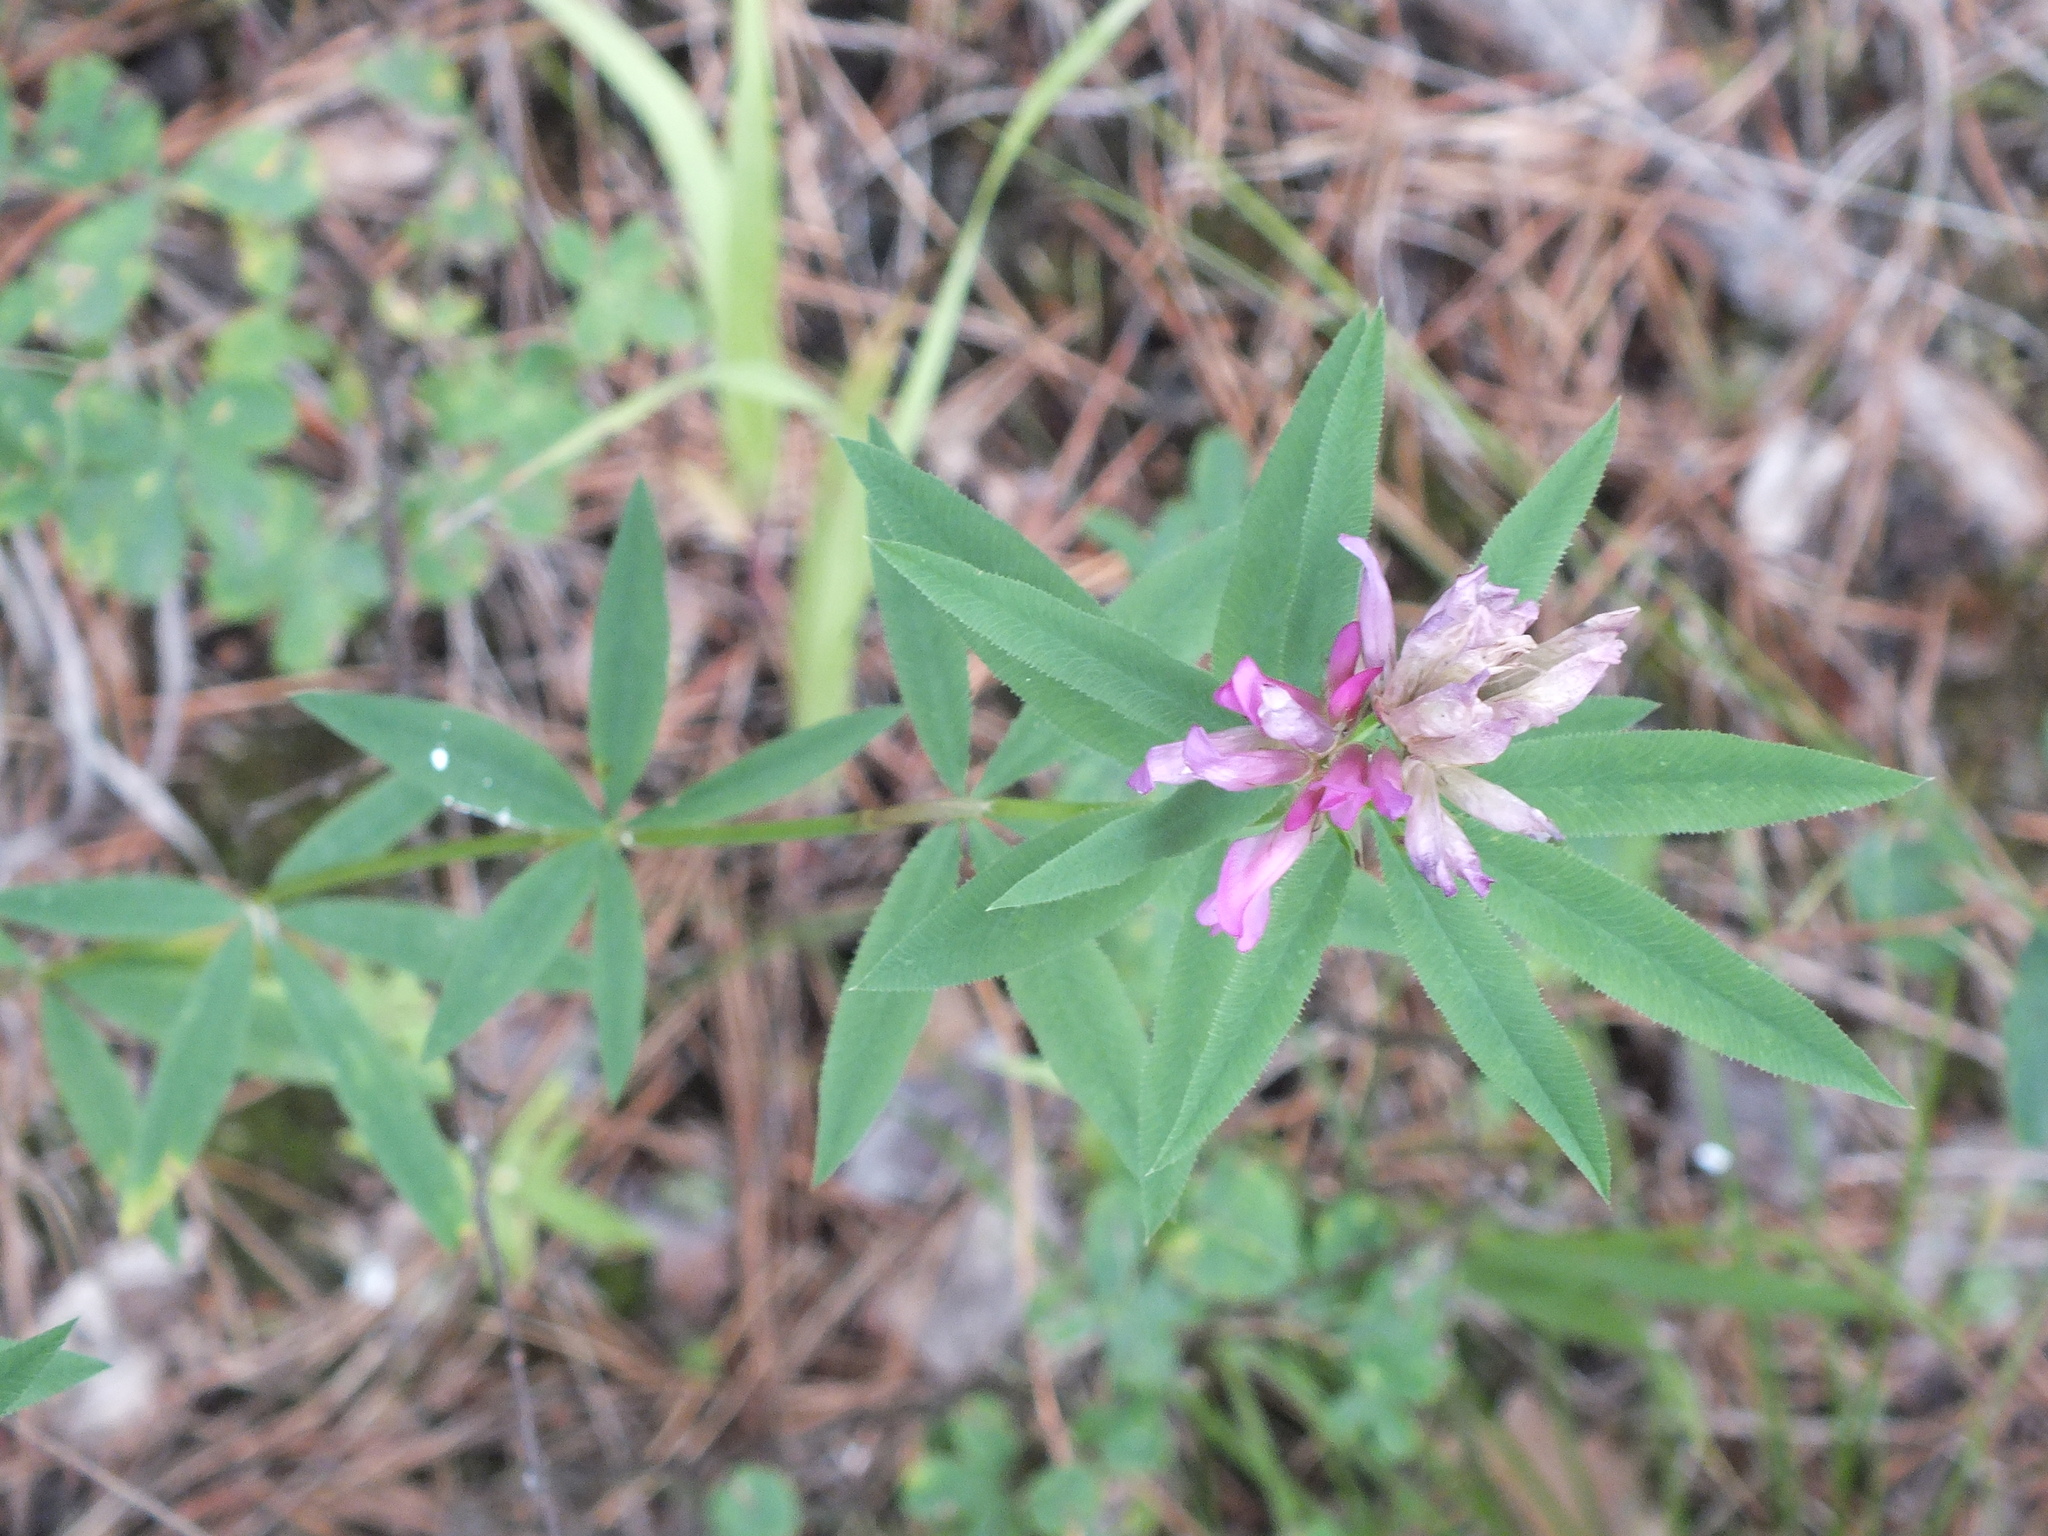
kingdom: Plantae
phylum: Tracheophyta
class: Magnoliopsida
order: Fabales
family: Fabaceae
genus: Trifolium
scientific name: Trifolium lupinaster
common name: Lupine clover
